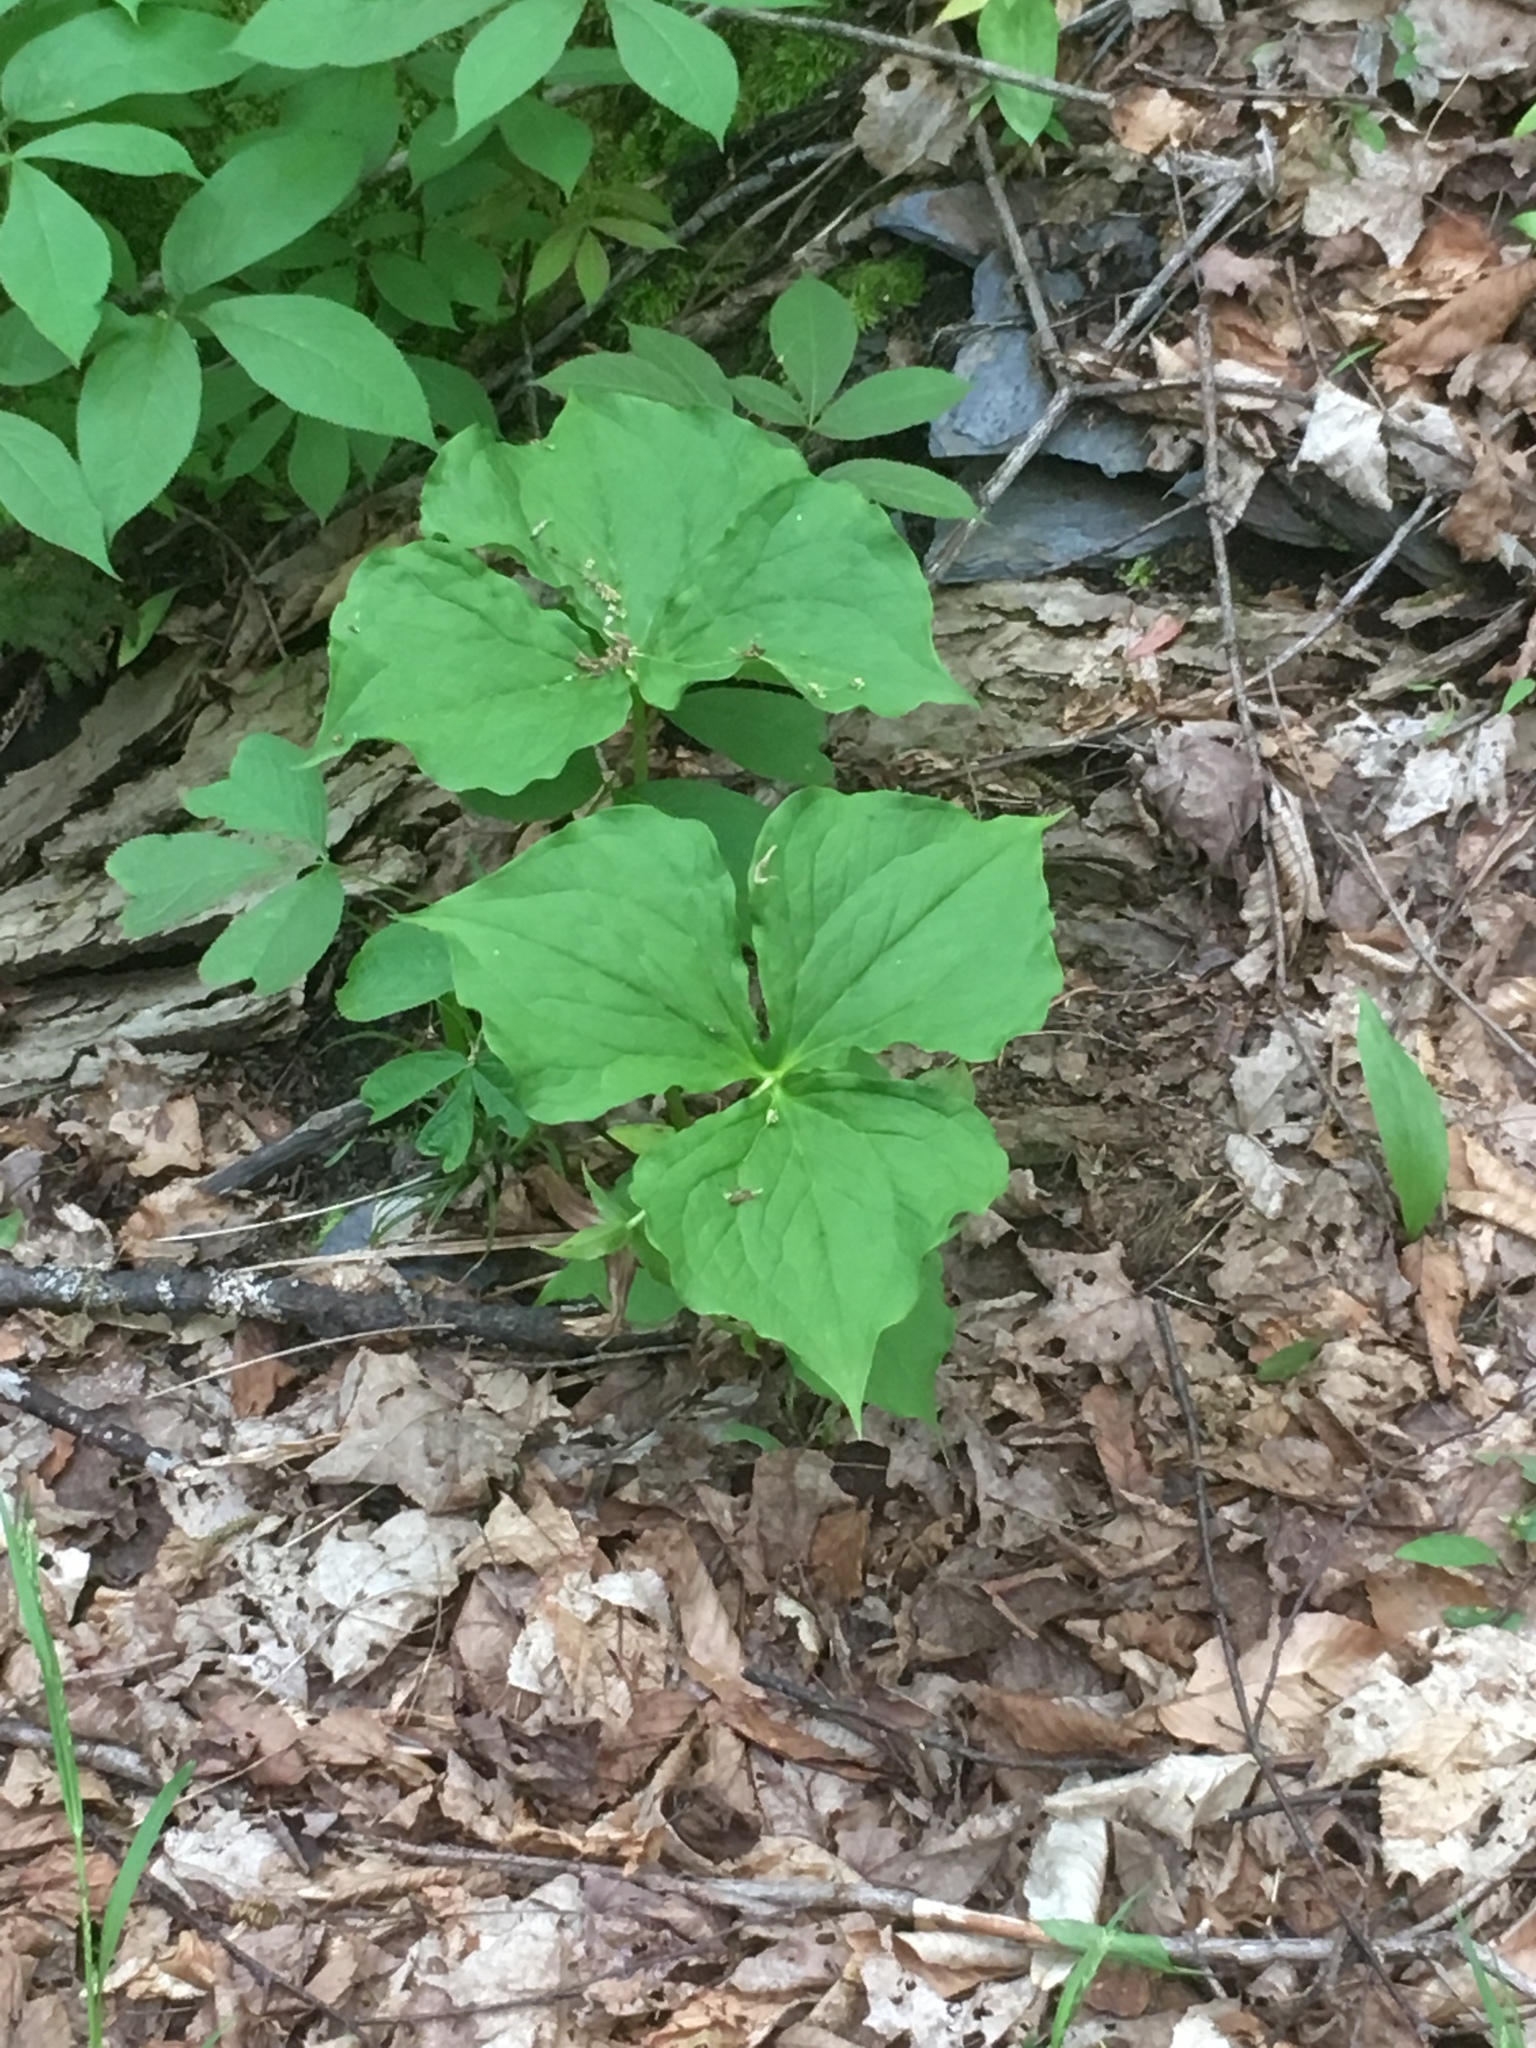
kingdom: Plantae
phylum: Tracheophyta
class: Liliopsida
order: Liliales
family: Melanthiaceae
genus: Trillium
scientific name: Trillium erectum
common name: Purple trillium
